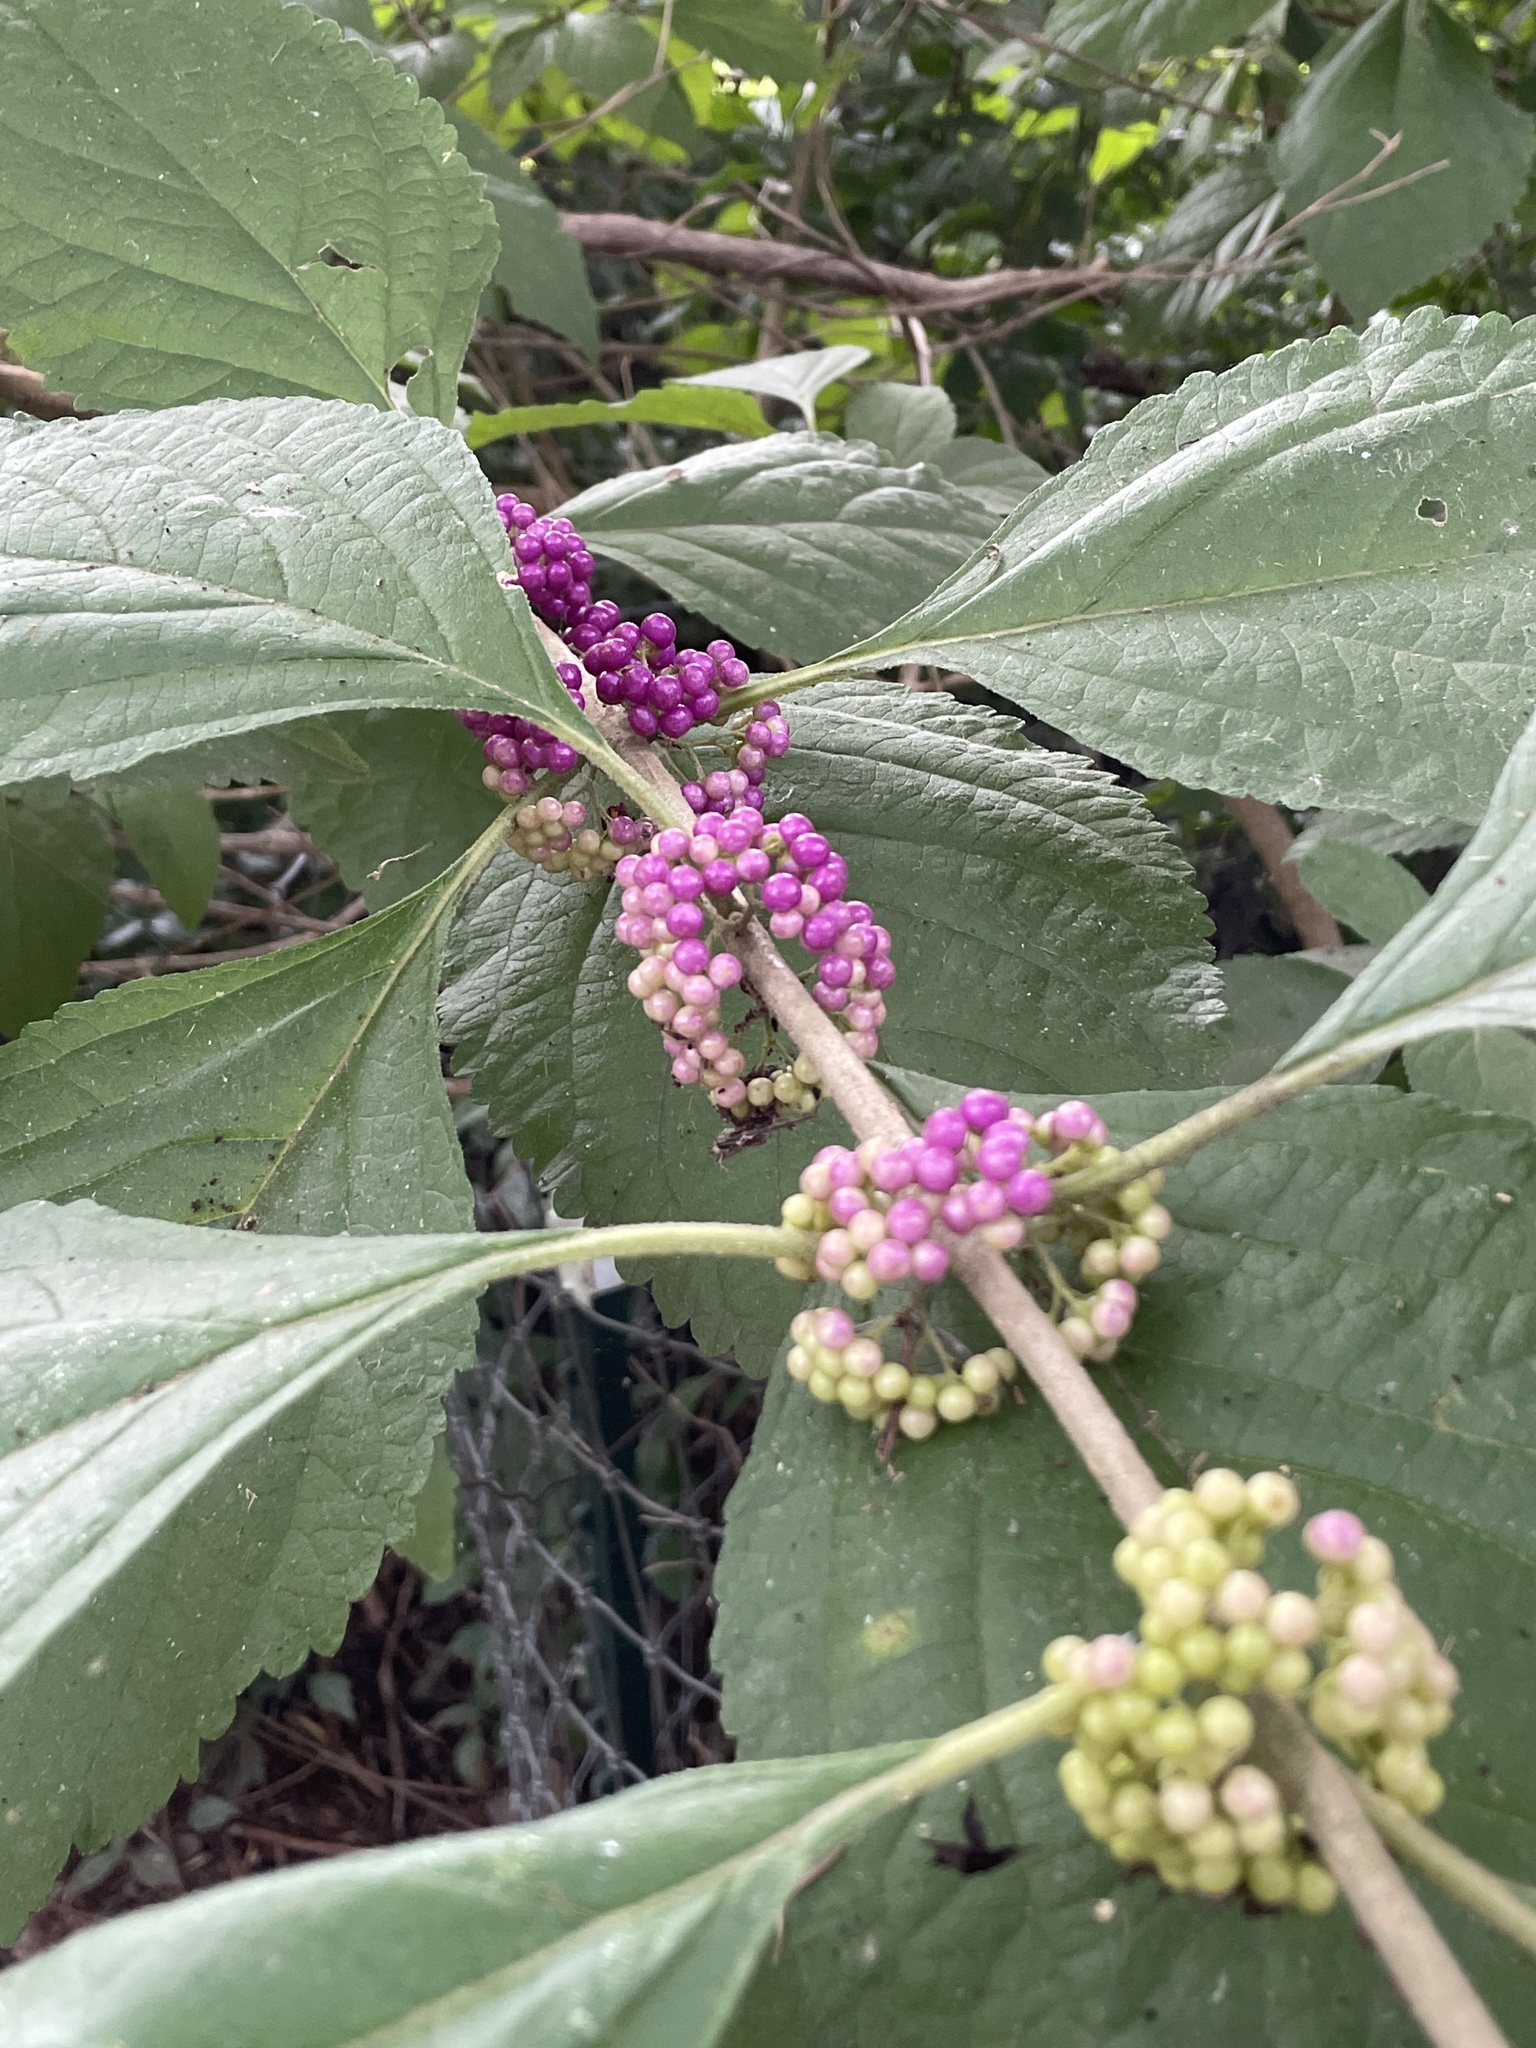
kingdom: Plantae
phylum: Tracheophyta
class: Magnoliopsida
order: Lamiales
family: Lamiaceae
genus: Callicarpa
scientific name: Callicarpa americana
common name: American beautyberry
